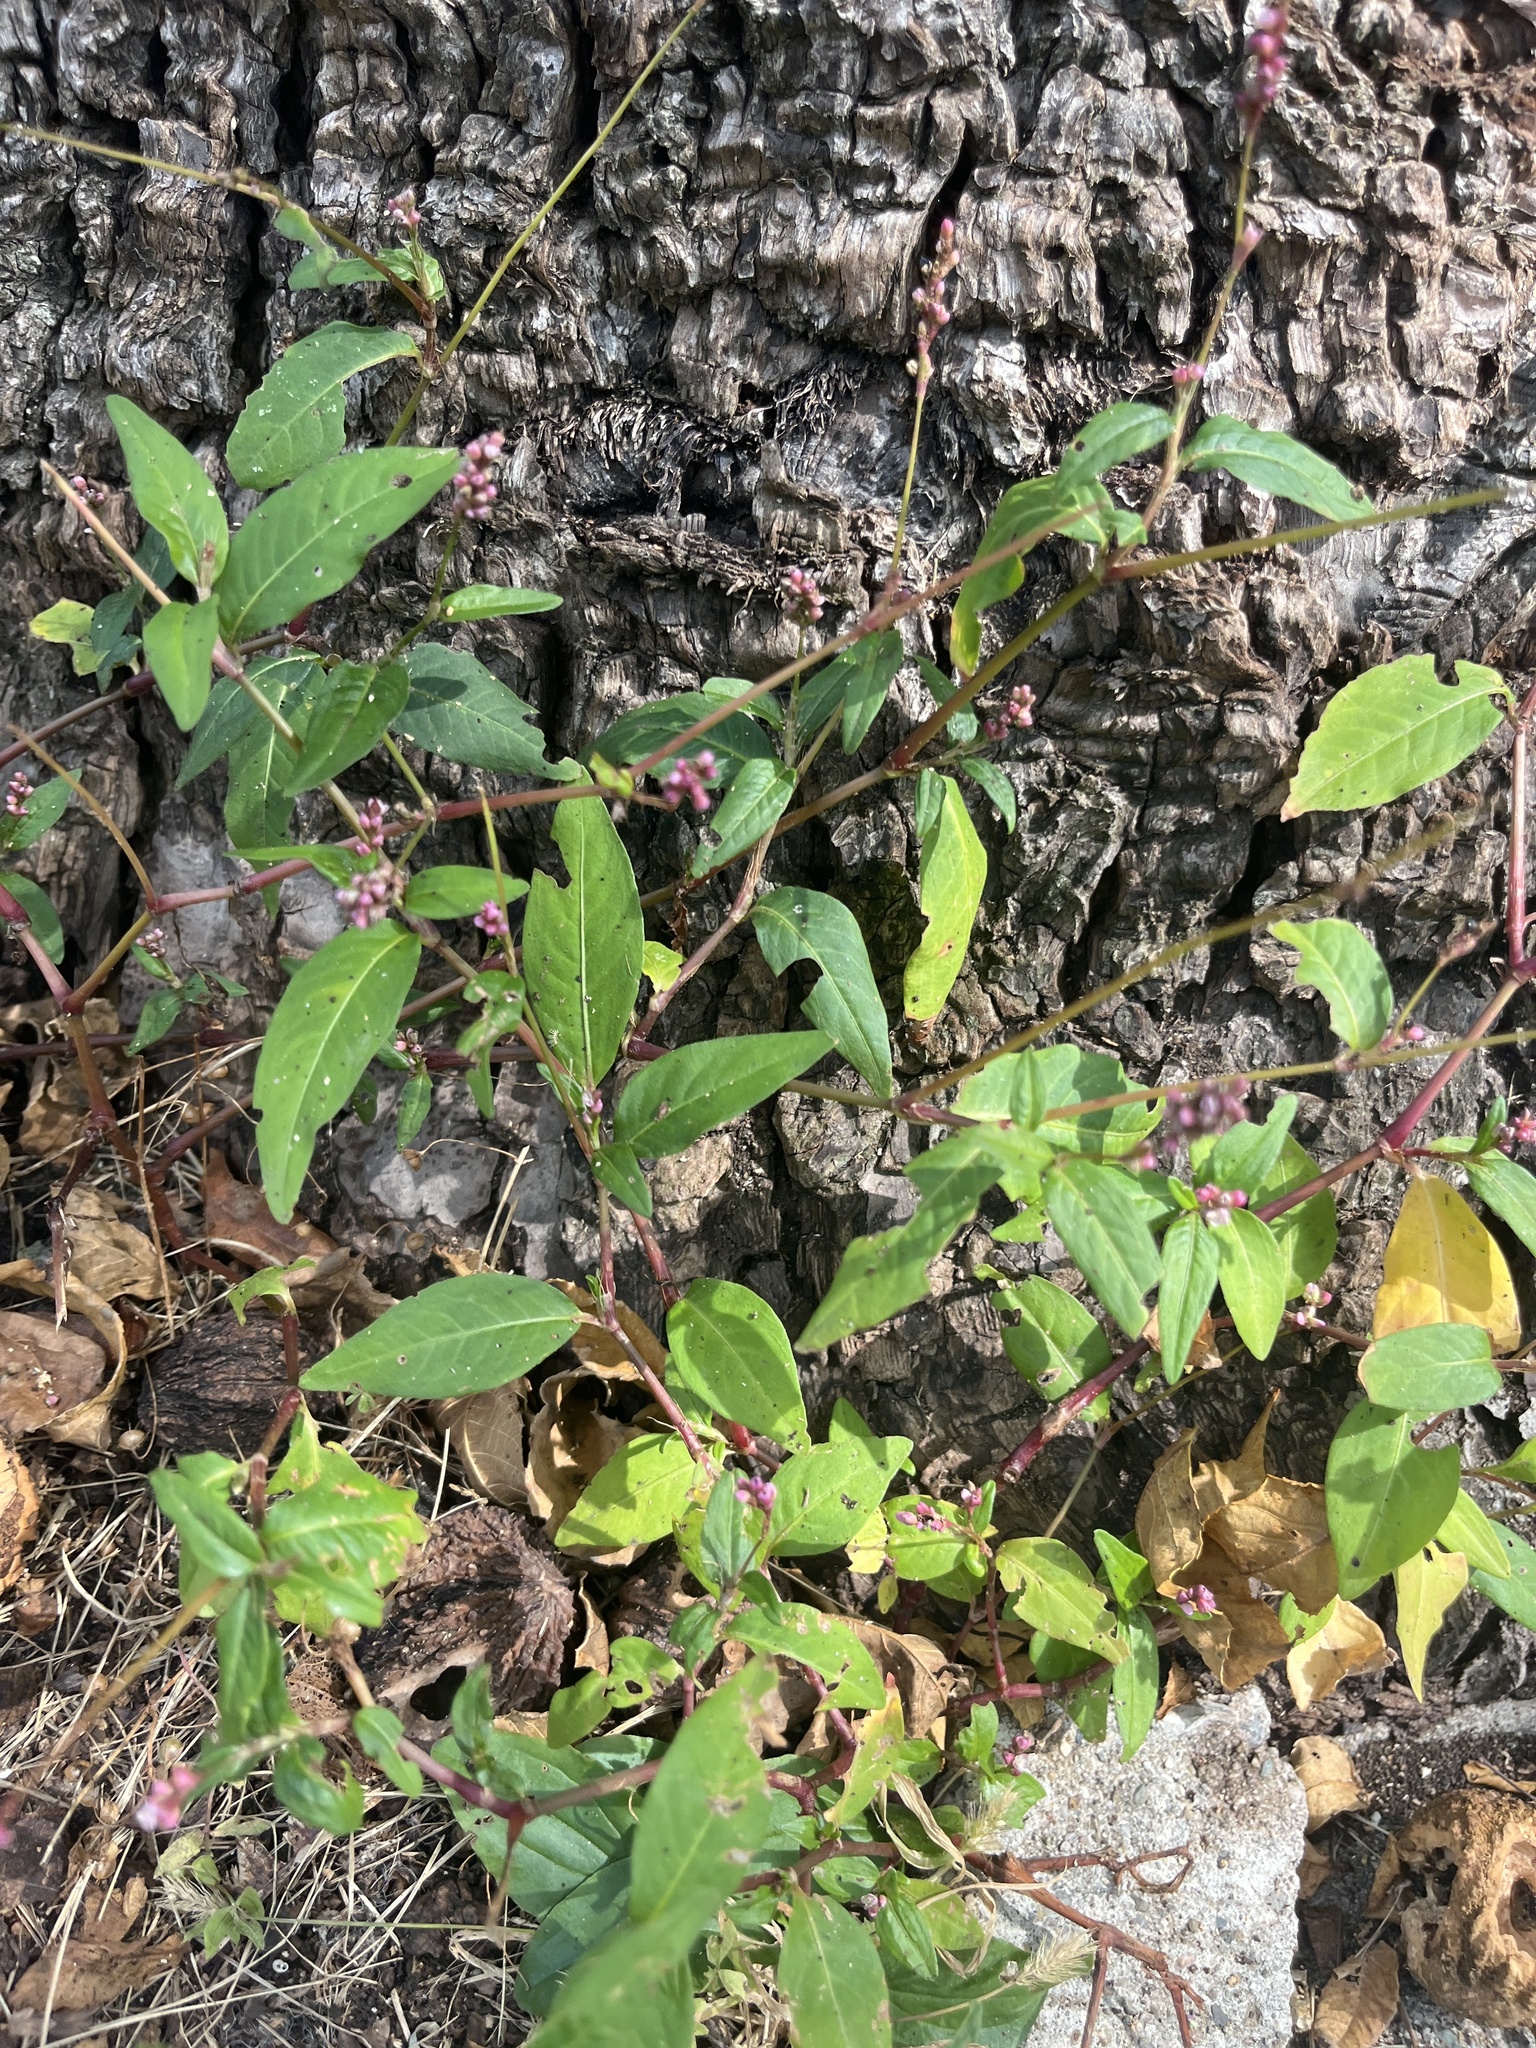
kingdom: Plantae
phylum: Tracheophyta
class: Magnoliopsida
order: Caryophyllales
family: Polygonaceae
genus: Persicaria
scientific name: Persicaria longiseta
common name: Bristly lady's-thumb
